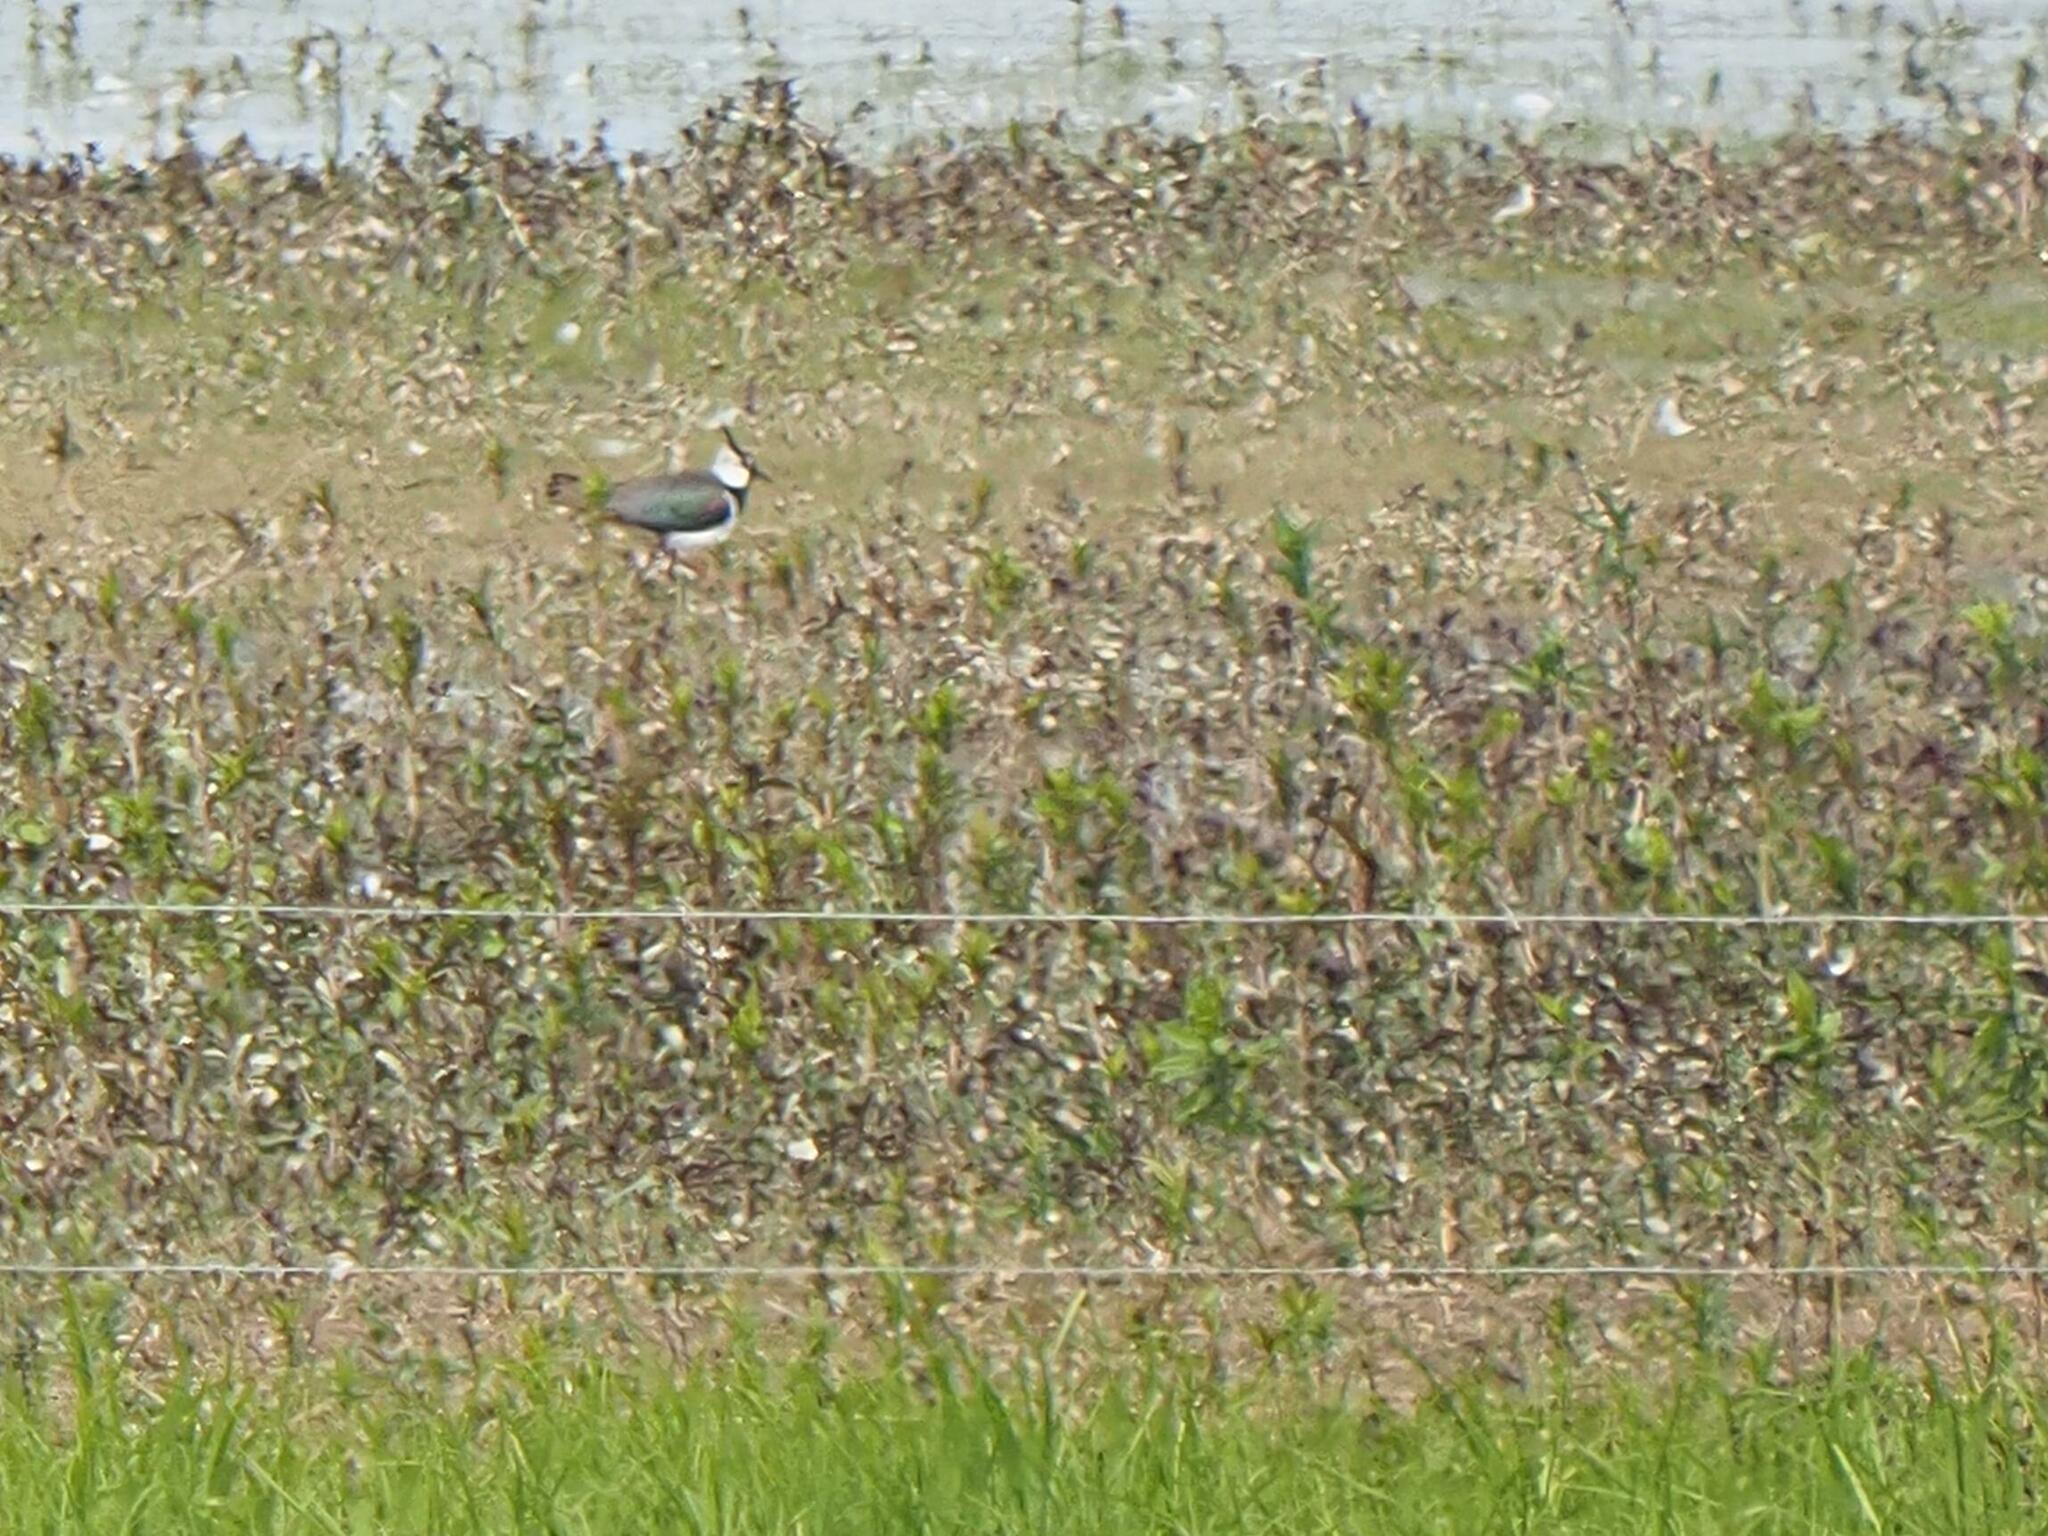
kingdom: Animalia
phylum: Chordata
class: Aves
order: Charadriiformes
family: Charadriidae
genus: Vanellus
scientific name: Vanellus vanellus
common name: Northern lapwing
